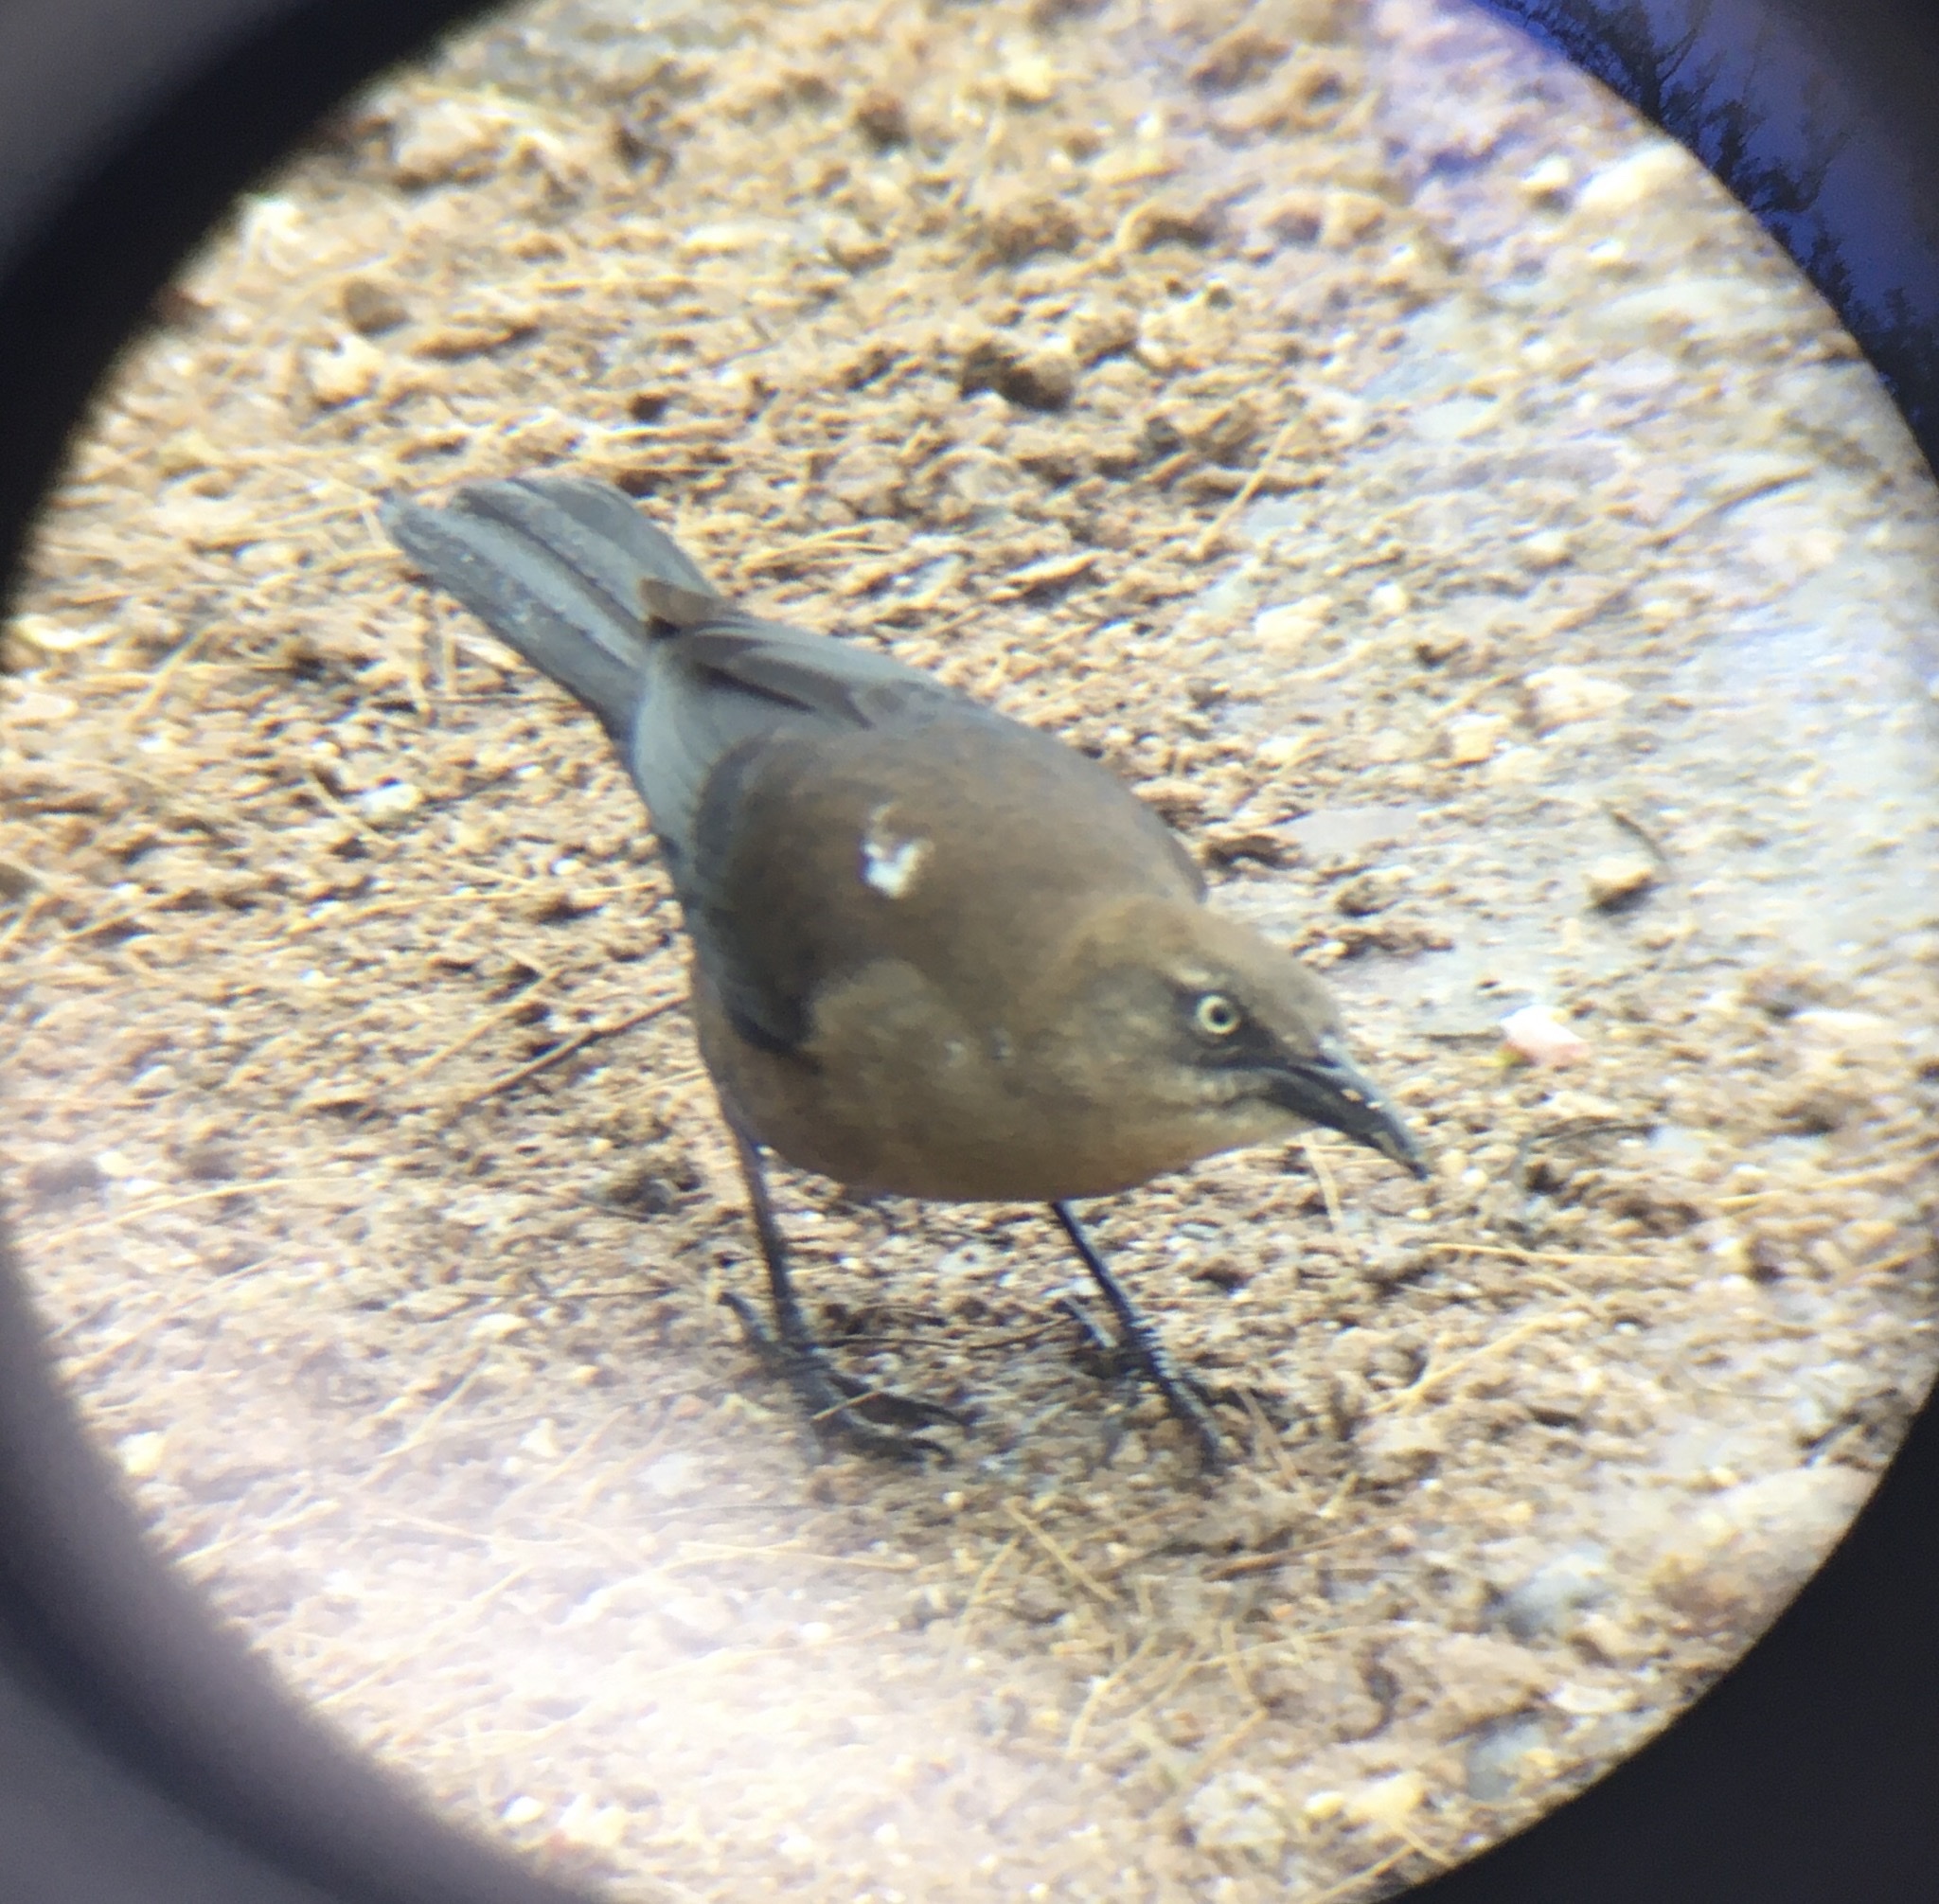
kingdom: Animalia
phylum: Chordata
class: Aves
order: Passeriformes
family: Icteridae
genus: Quiscalus
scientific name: Quiscalus mexicanus
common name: Great-tailed grackle
